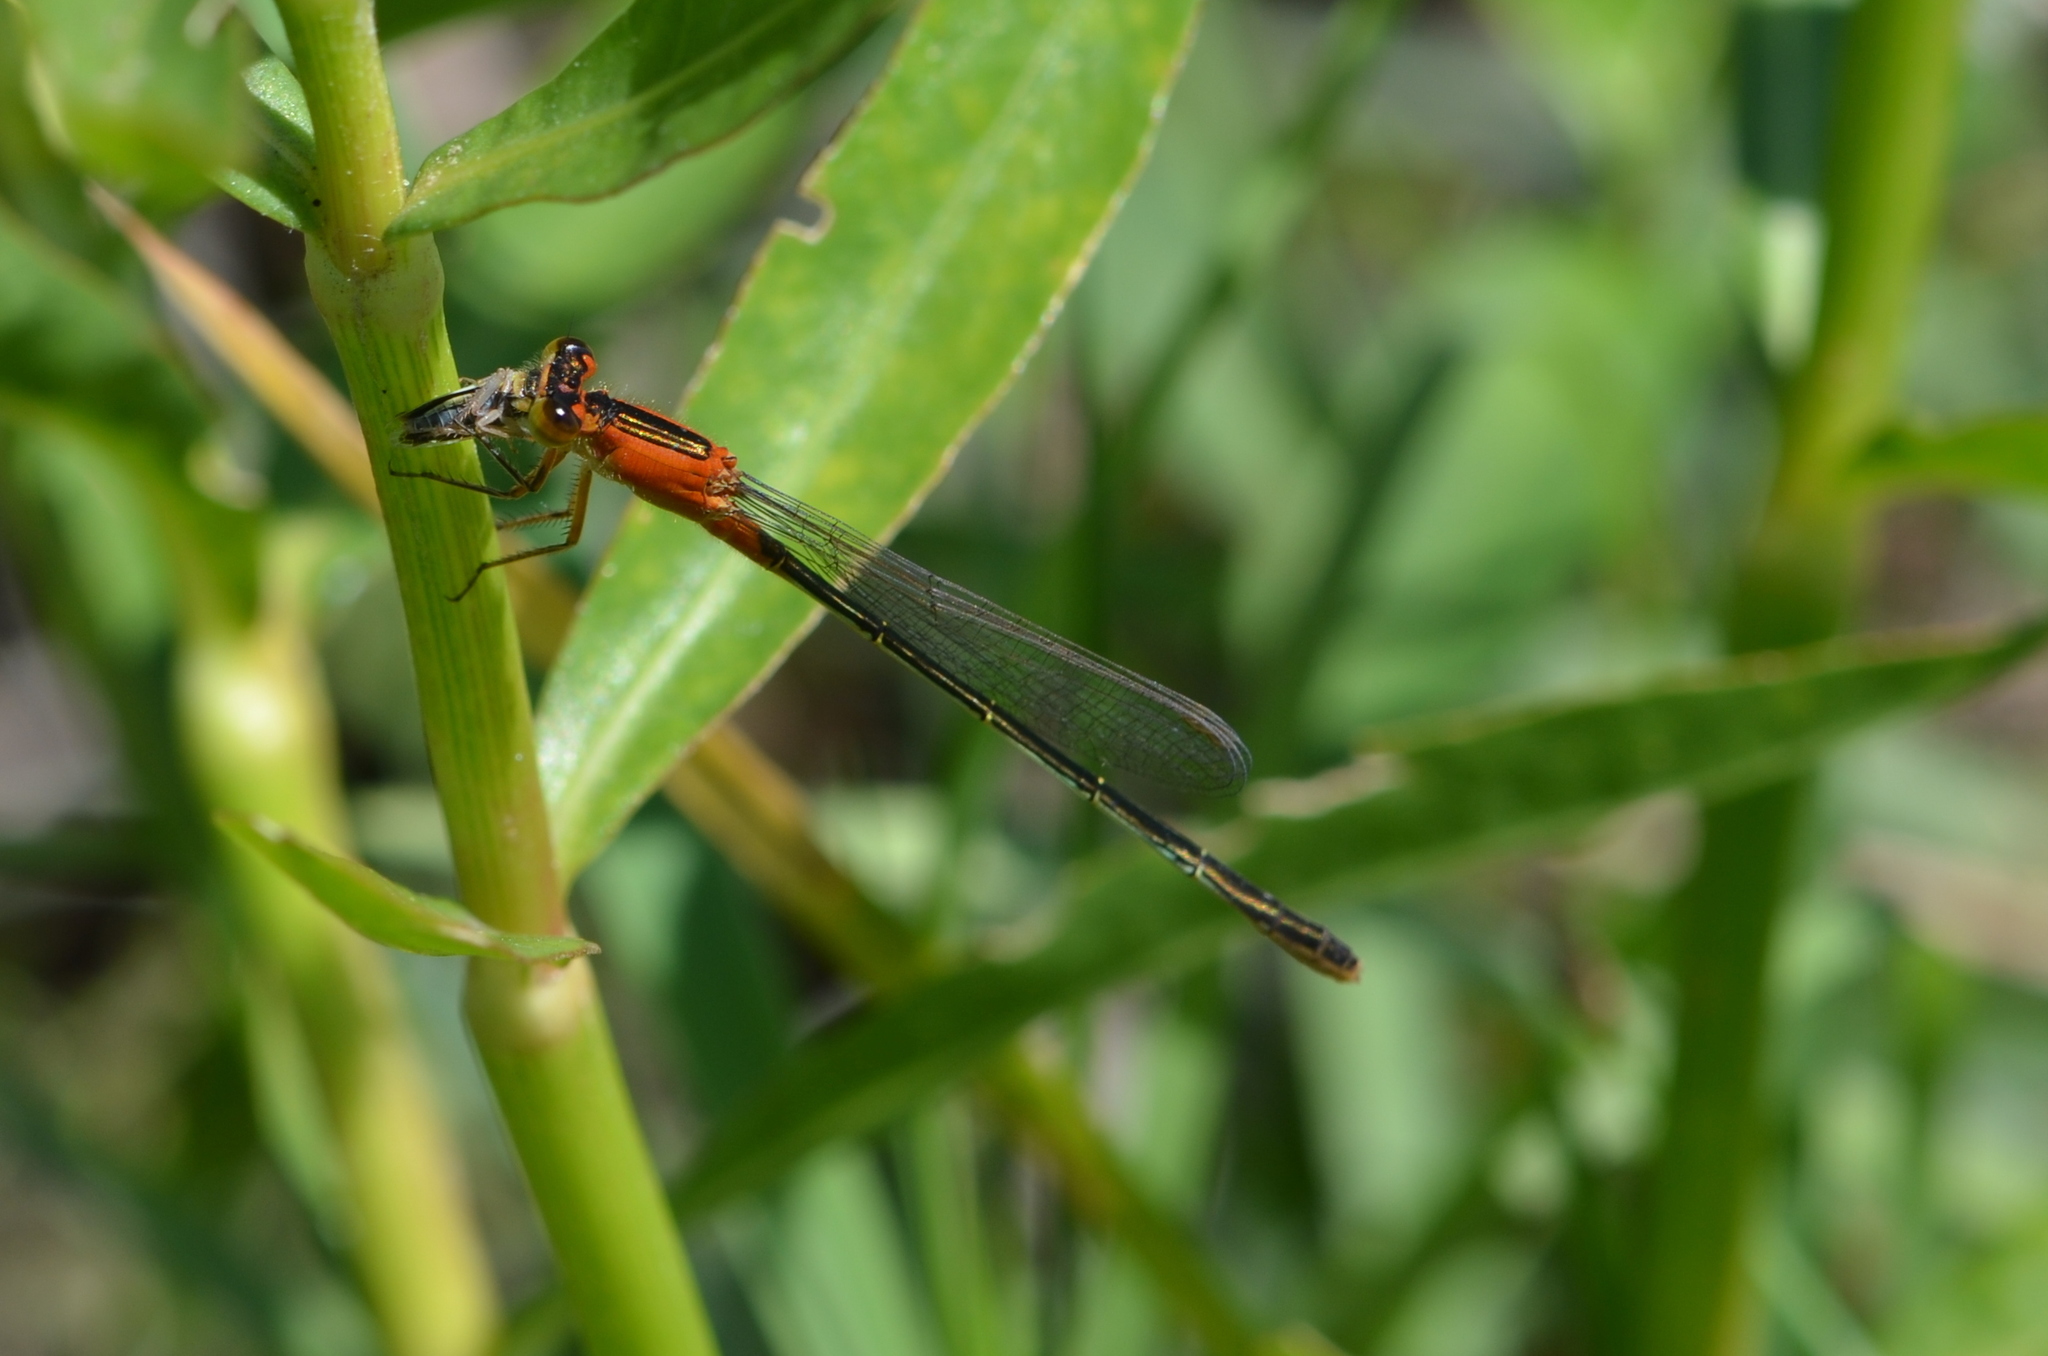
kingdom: Animalia
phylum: Arthropoda
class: Insecta
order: Odonata
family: Coenagrionidae
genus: Ischnura
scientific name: Ischnura ramburii
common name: Rambur's forktail
